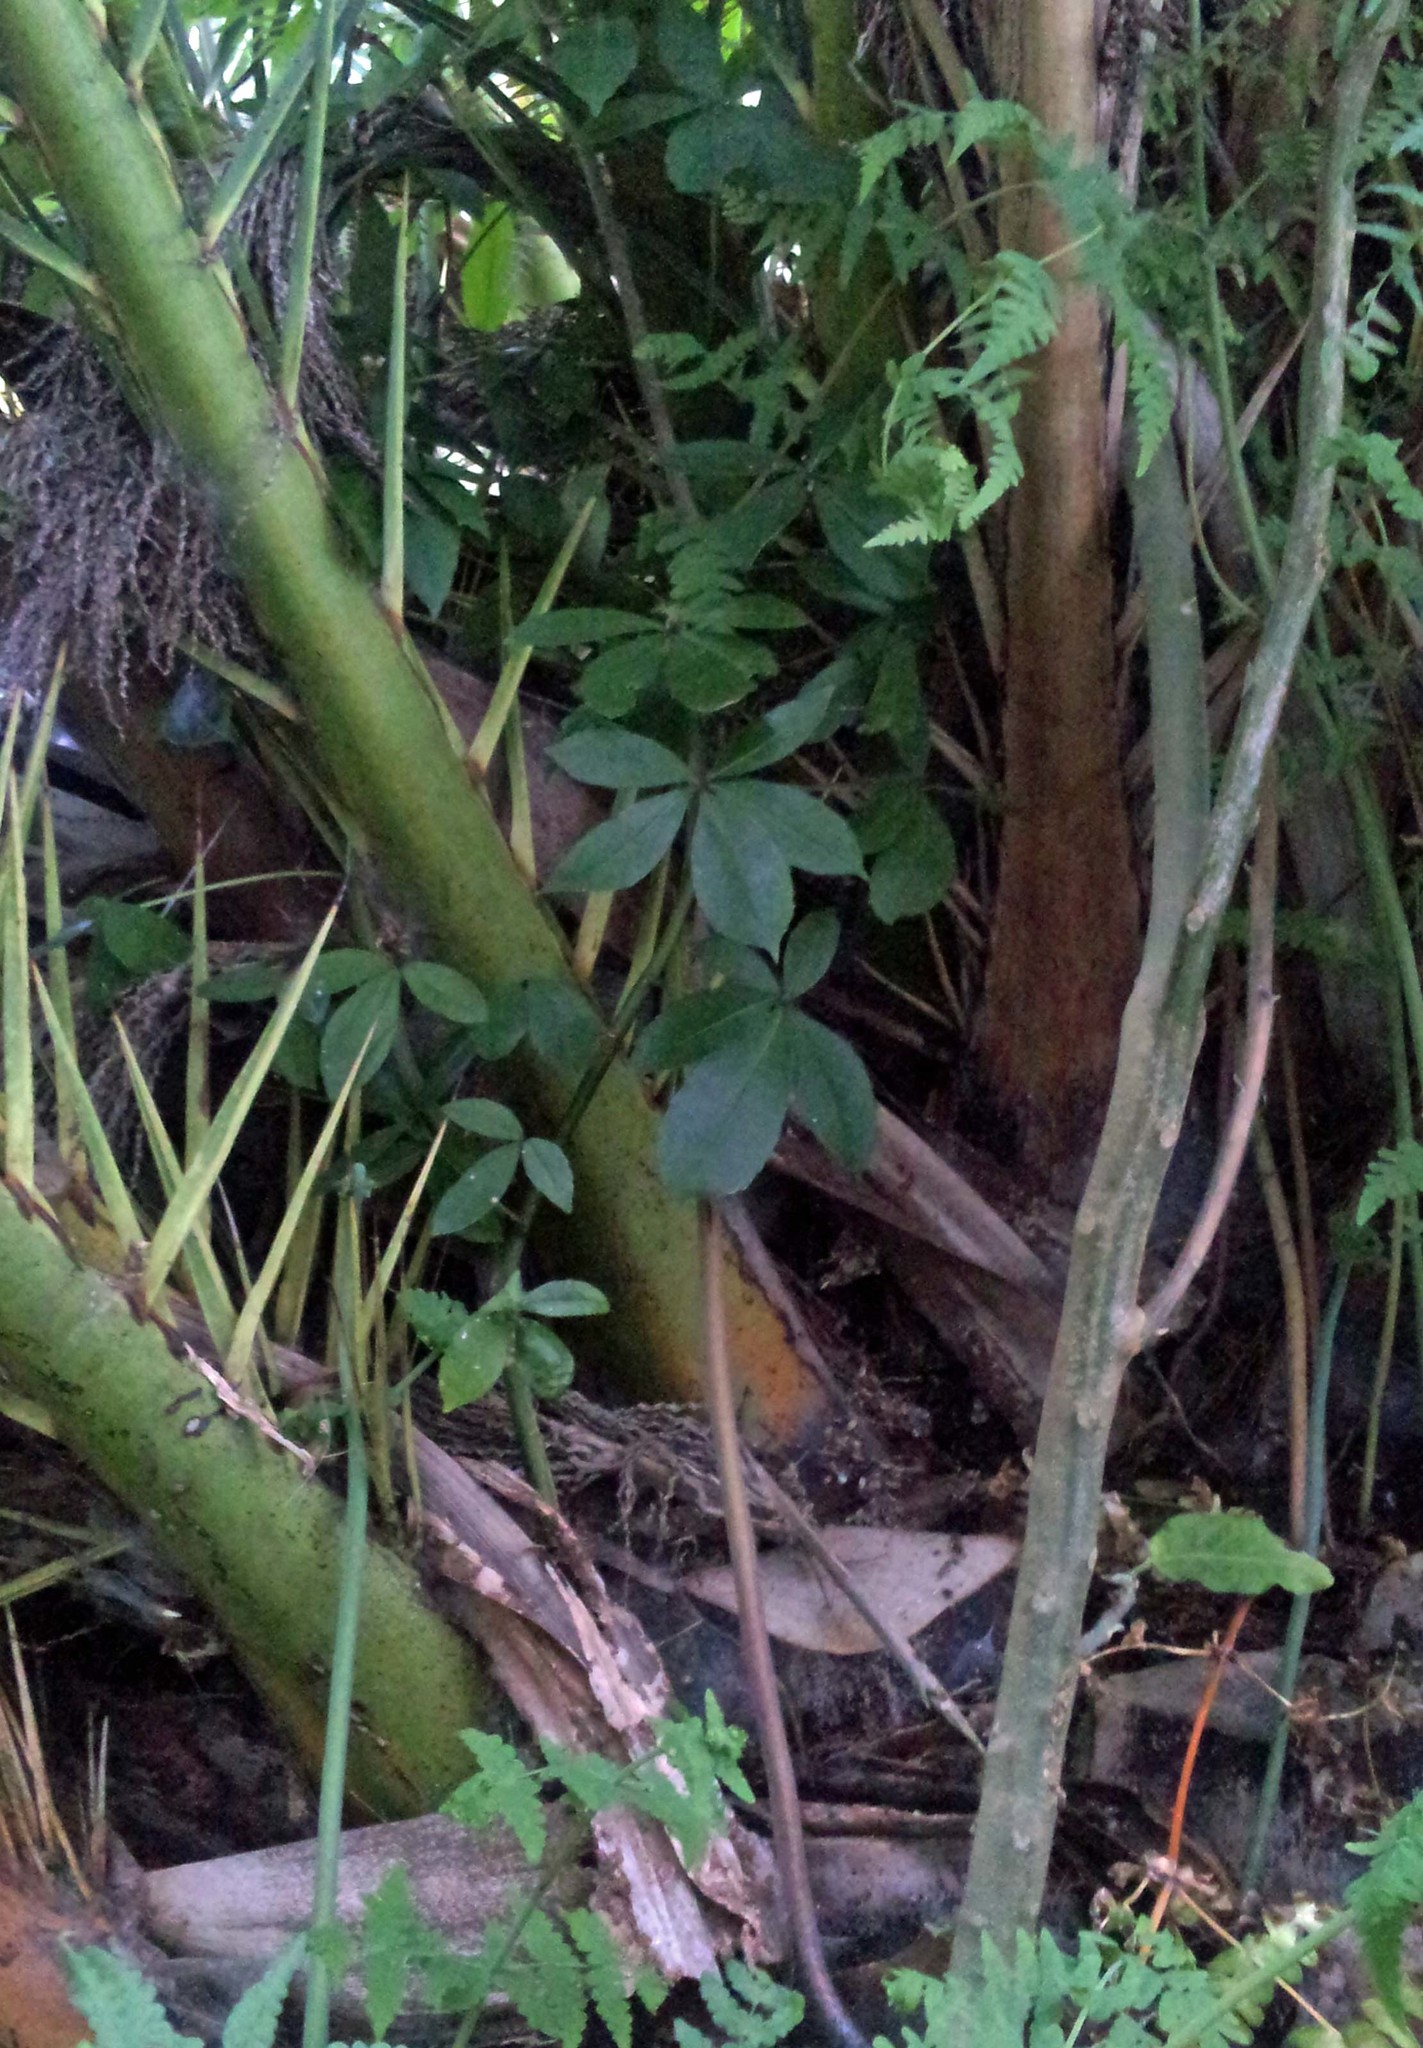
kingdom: Plantae
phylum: Tracheophyta
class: Magnoliopsida
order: Apiales
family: Araliaceae
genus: Pseudopanax
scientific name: Pseudopanax lessonii
